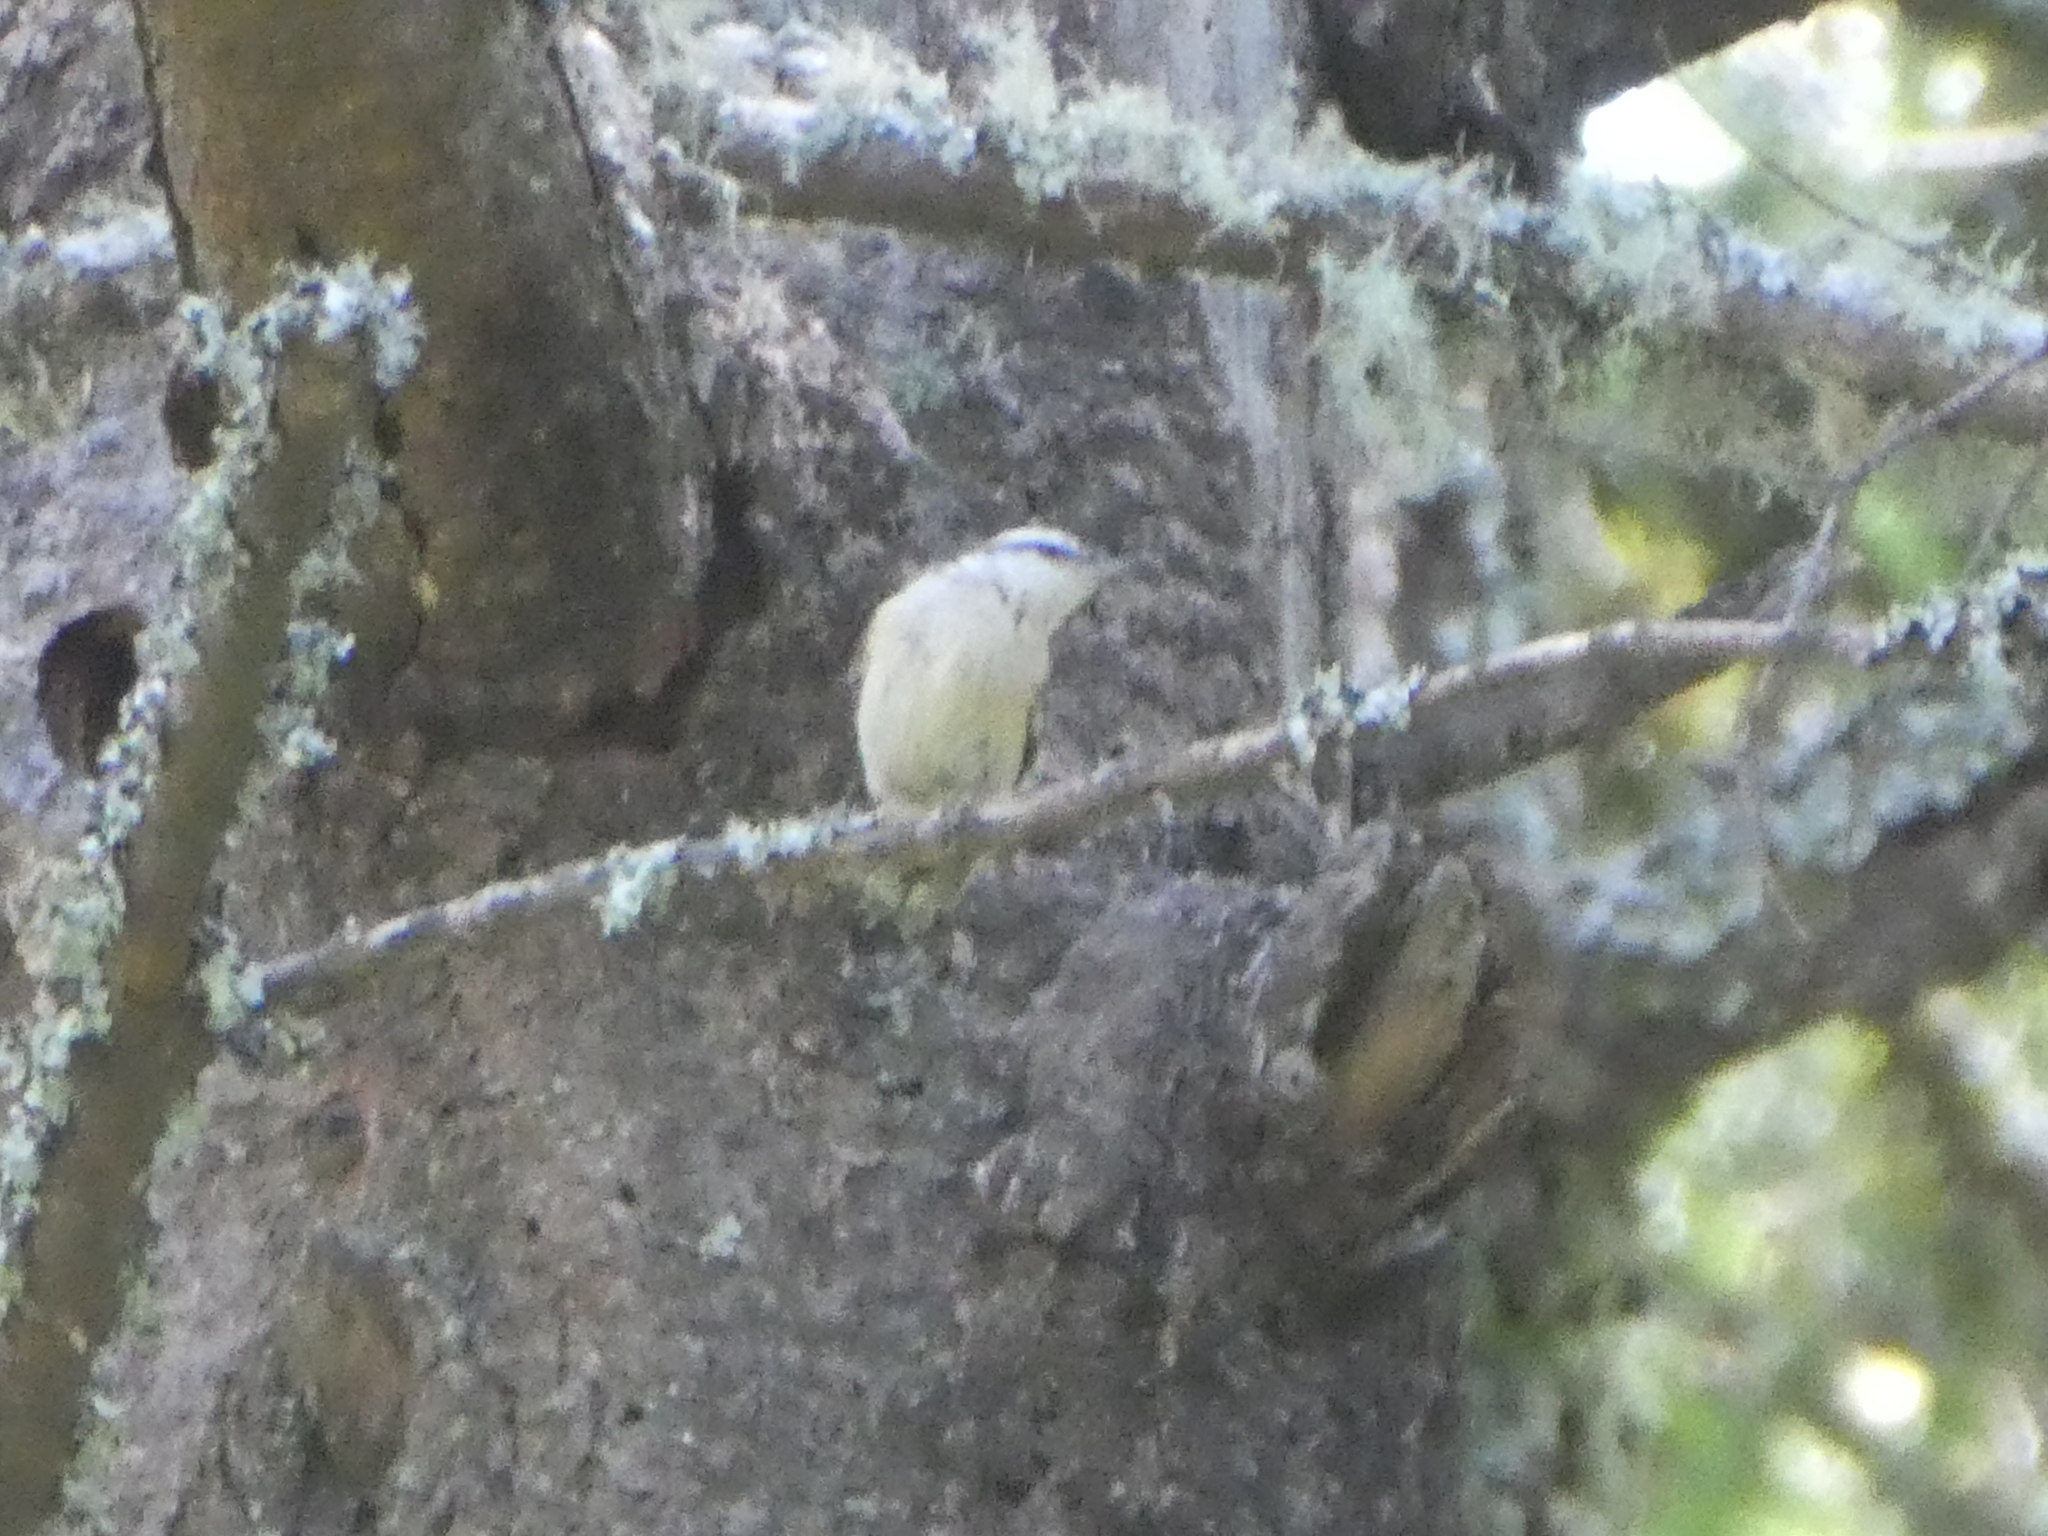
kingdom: Animalia
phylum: Chordata
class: Aves
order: Passeriformes
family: Sittidae
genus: Sitta
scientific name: Sitta canadensis
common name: Red-breasted nuthatch
